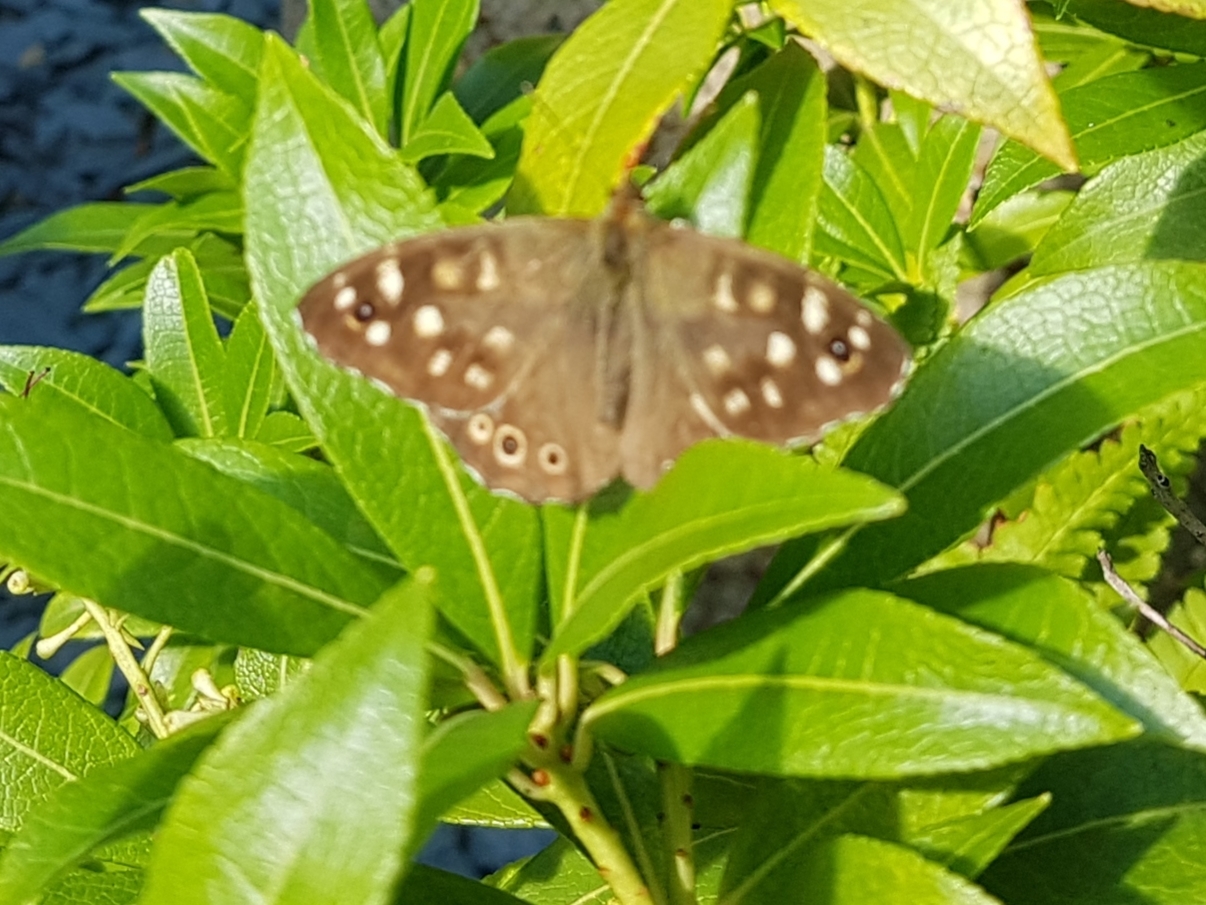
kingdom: Animalia
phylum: Arthropoda
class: Insecta
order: Lepidoptera
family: Nymphalidae
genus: Pararge
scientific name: Pararge aegeria
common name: Speckled wood
